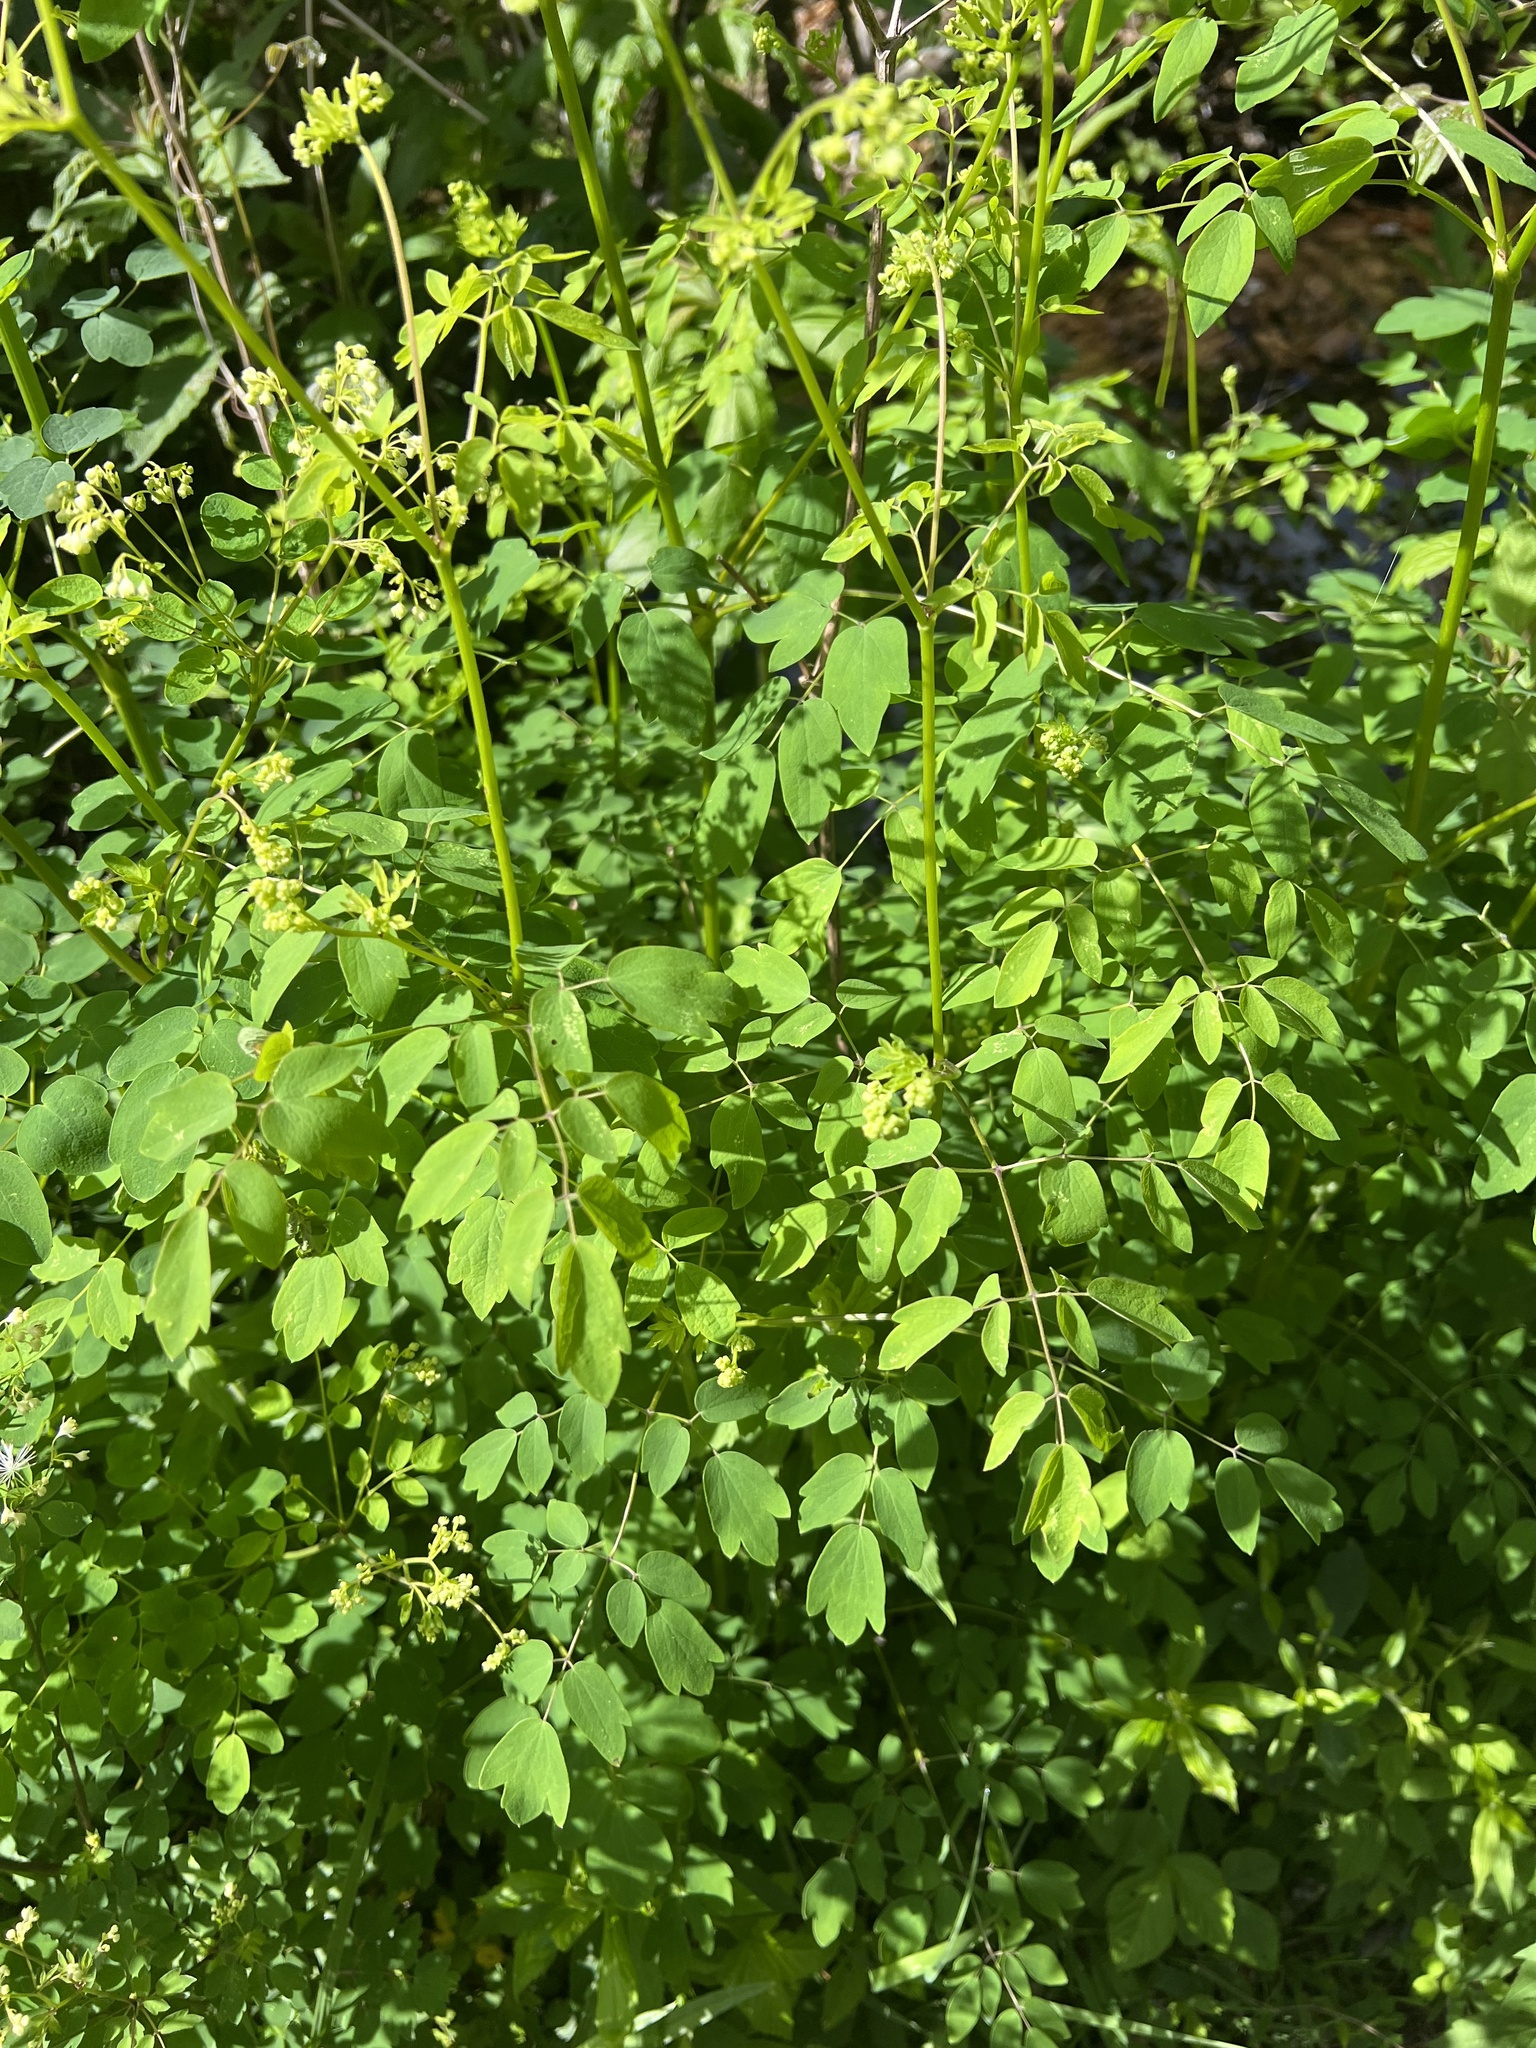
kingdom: Plantae
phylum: Tracheophyta
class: Magnoliopsida
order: Ranunculales
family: Ranunculaceae
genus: Thalictrum
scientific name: Thalictrum pubescens
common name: King-of-the-meadow
